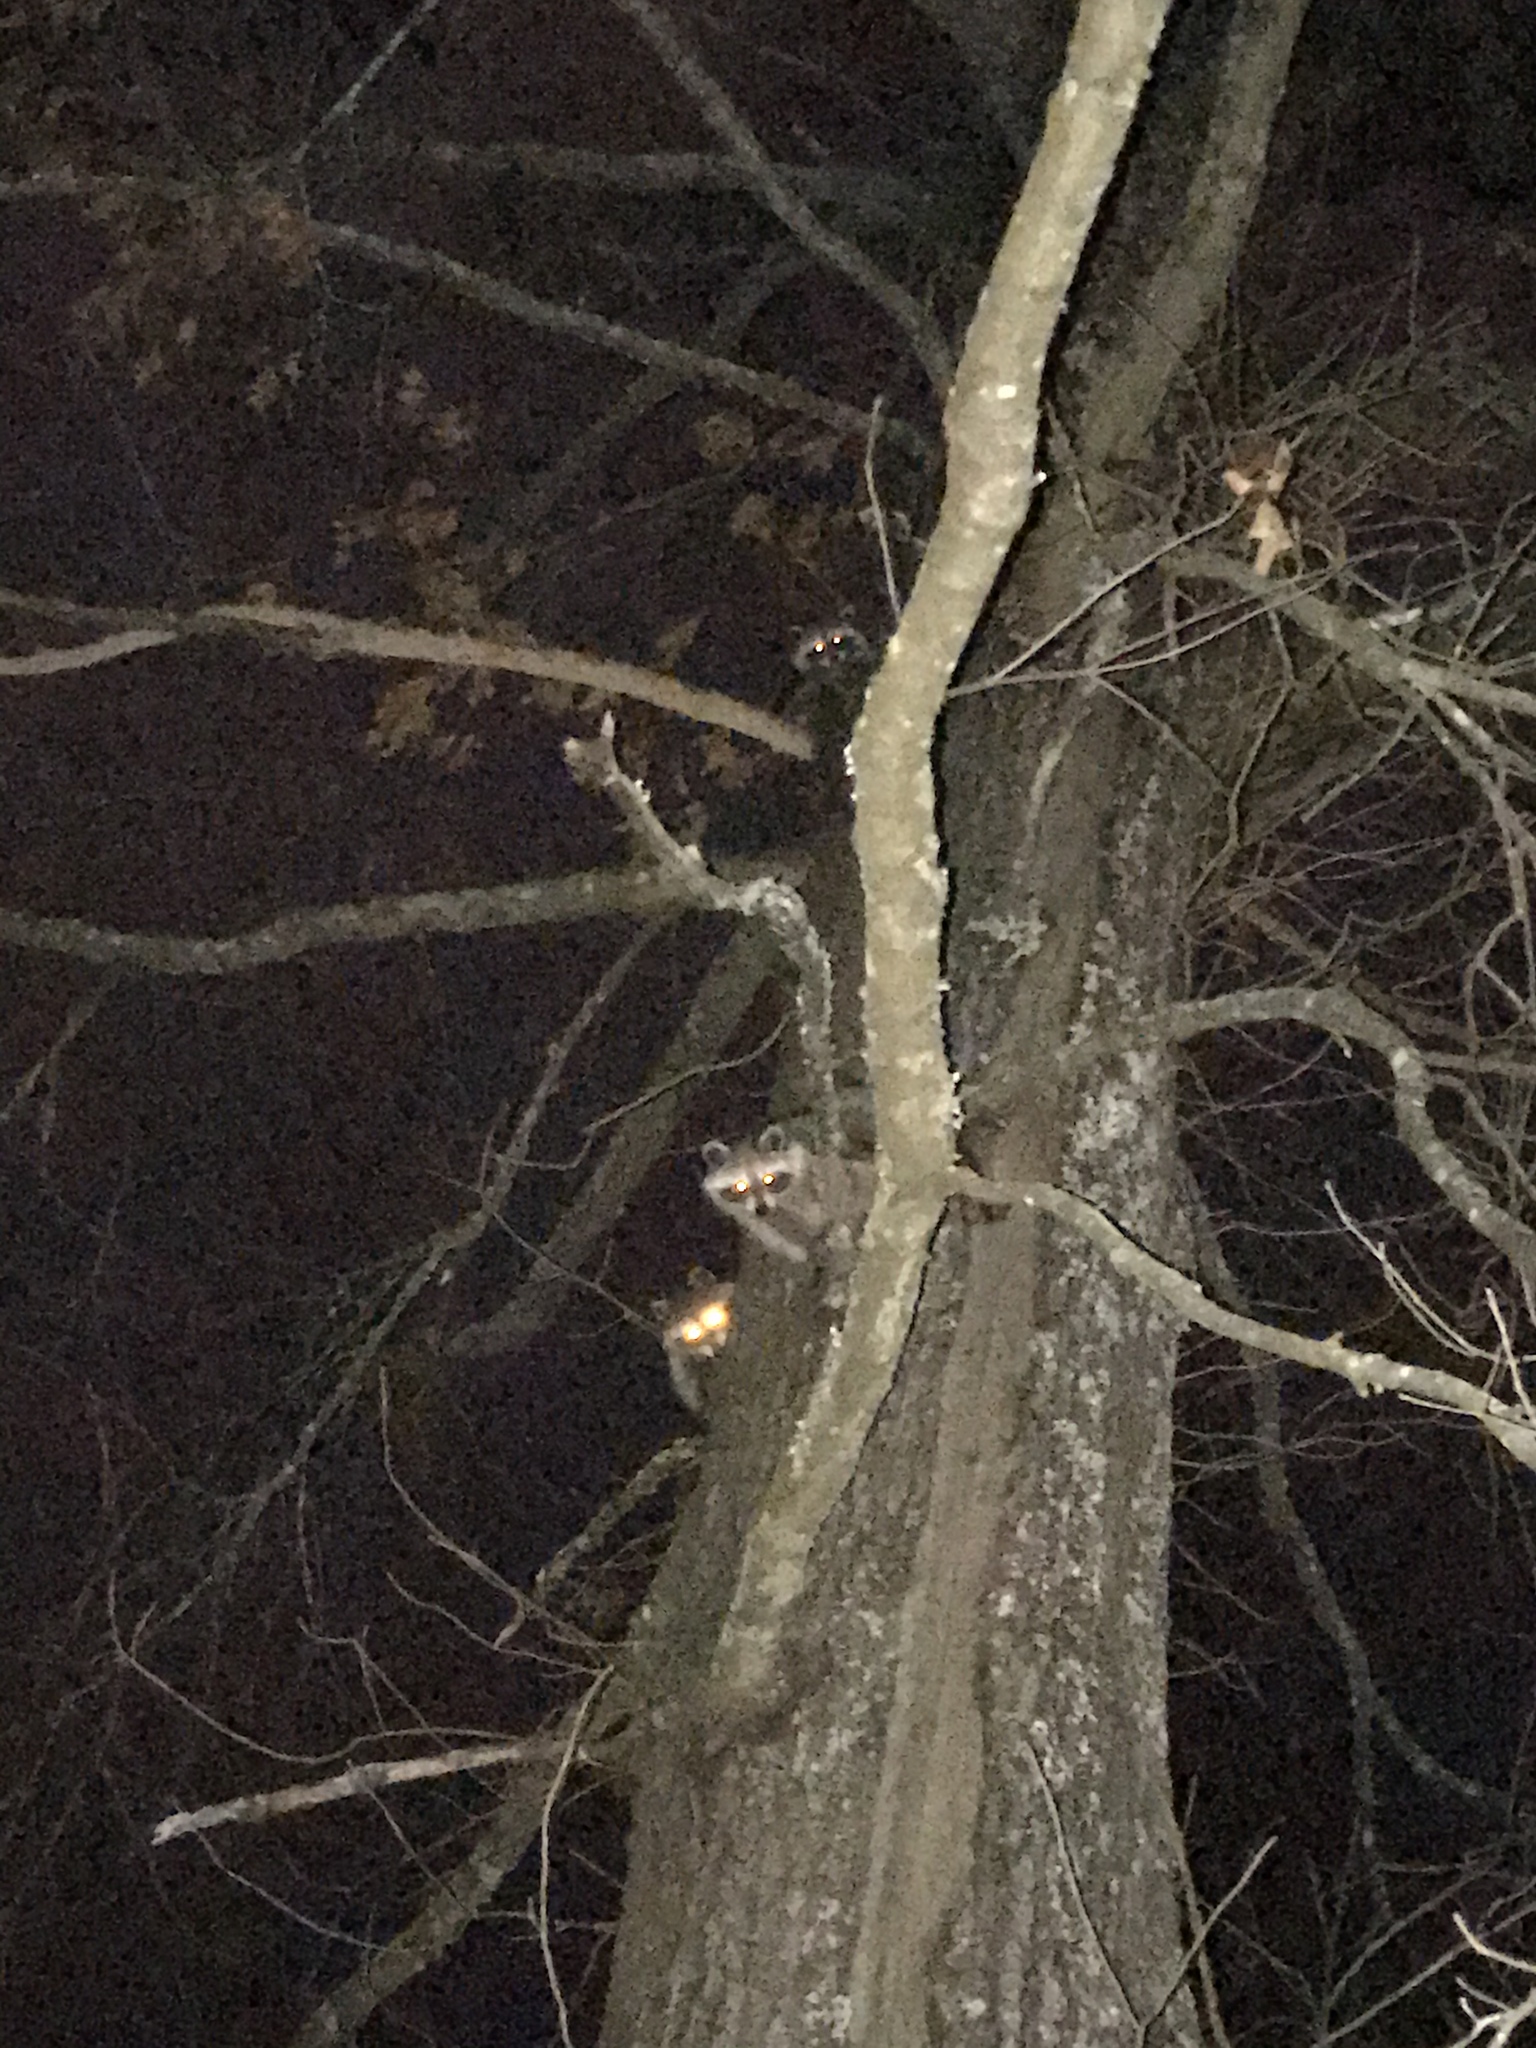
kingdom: Animalia
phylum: Chordata
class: Mammalia
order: Carnivora
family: Procyonidae
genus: Procyon
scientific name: Procyon lotor
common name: Raccoon
